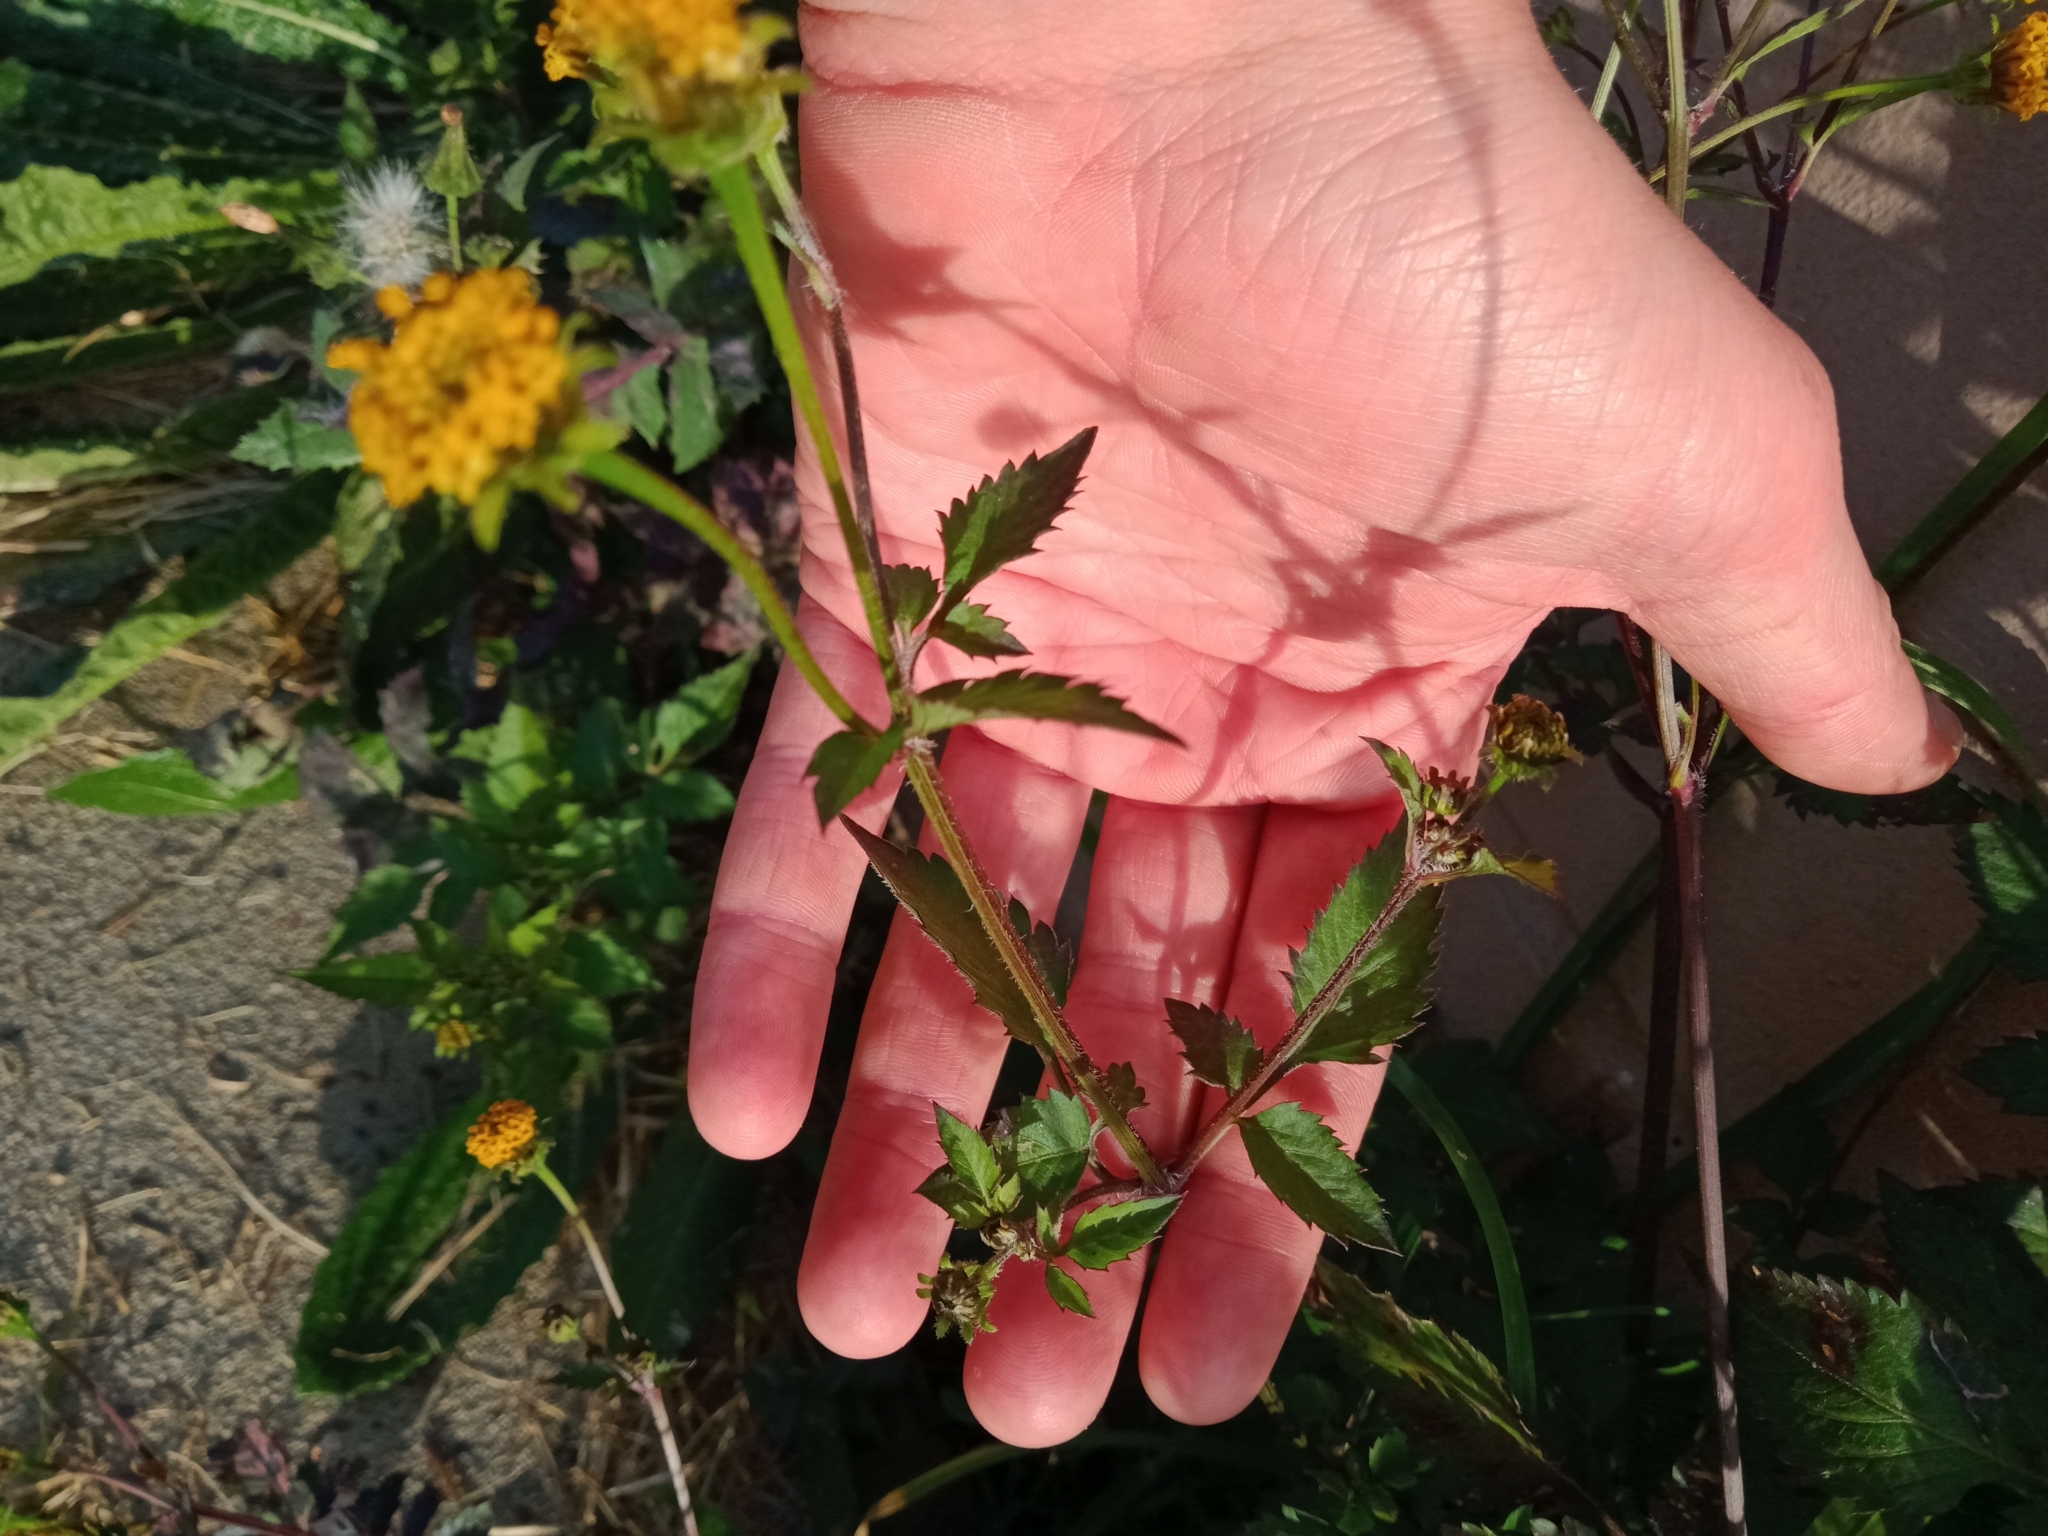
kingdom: Plantae
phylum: Tracheophyta
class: Magnoliopsida
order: Asterales
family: Asteraceae
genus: Bidens
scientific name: Bidens pilosa
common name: Black-jack
